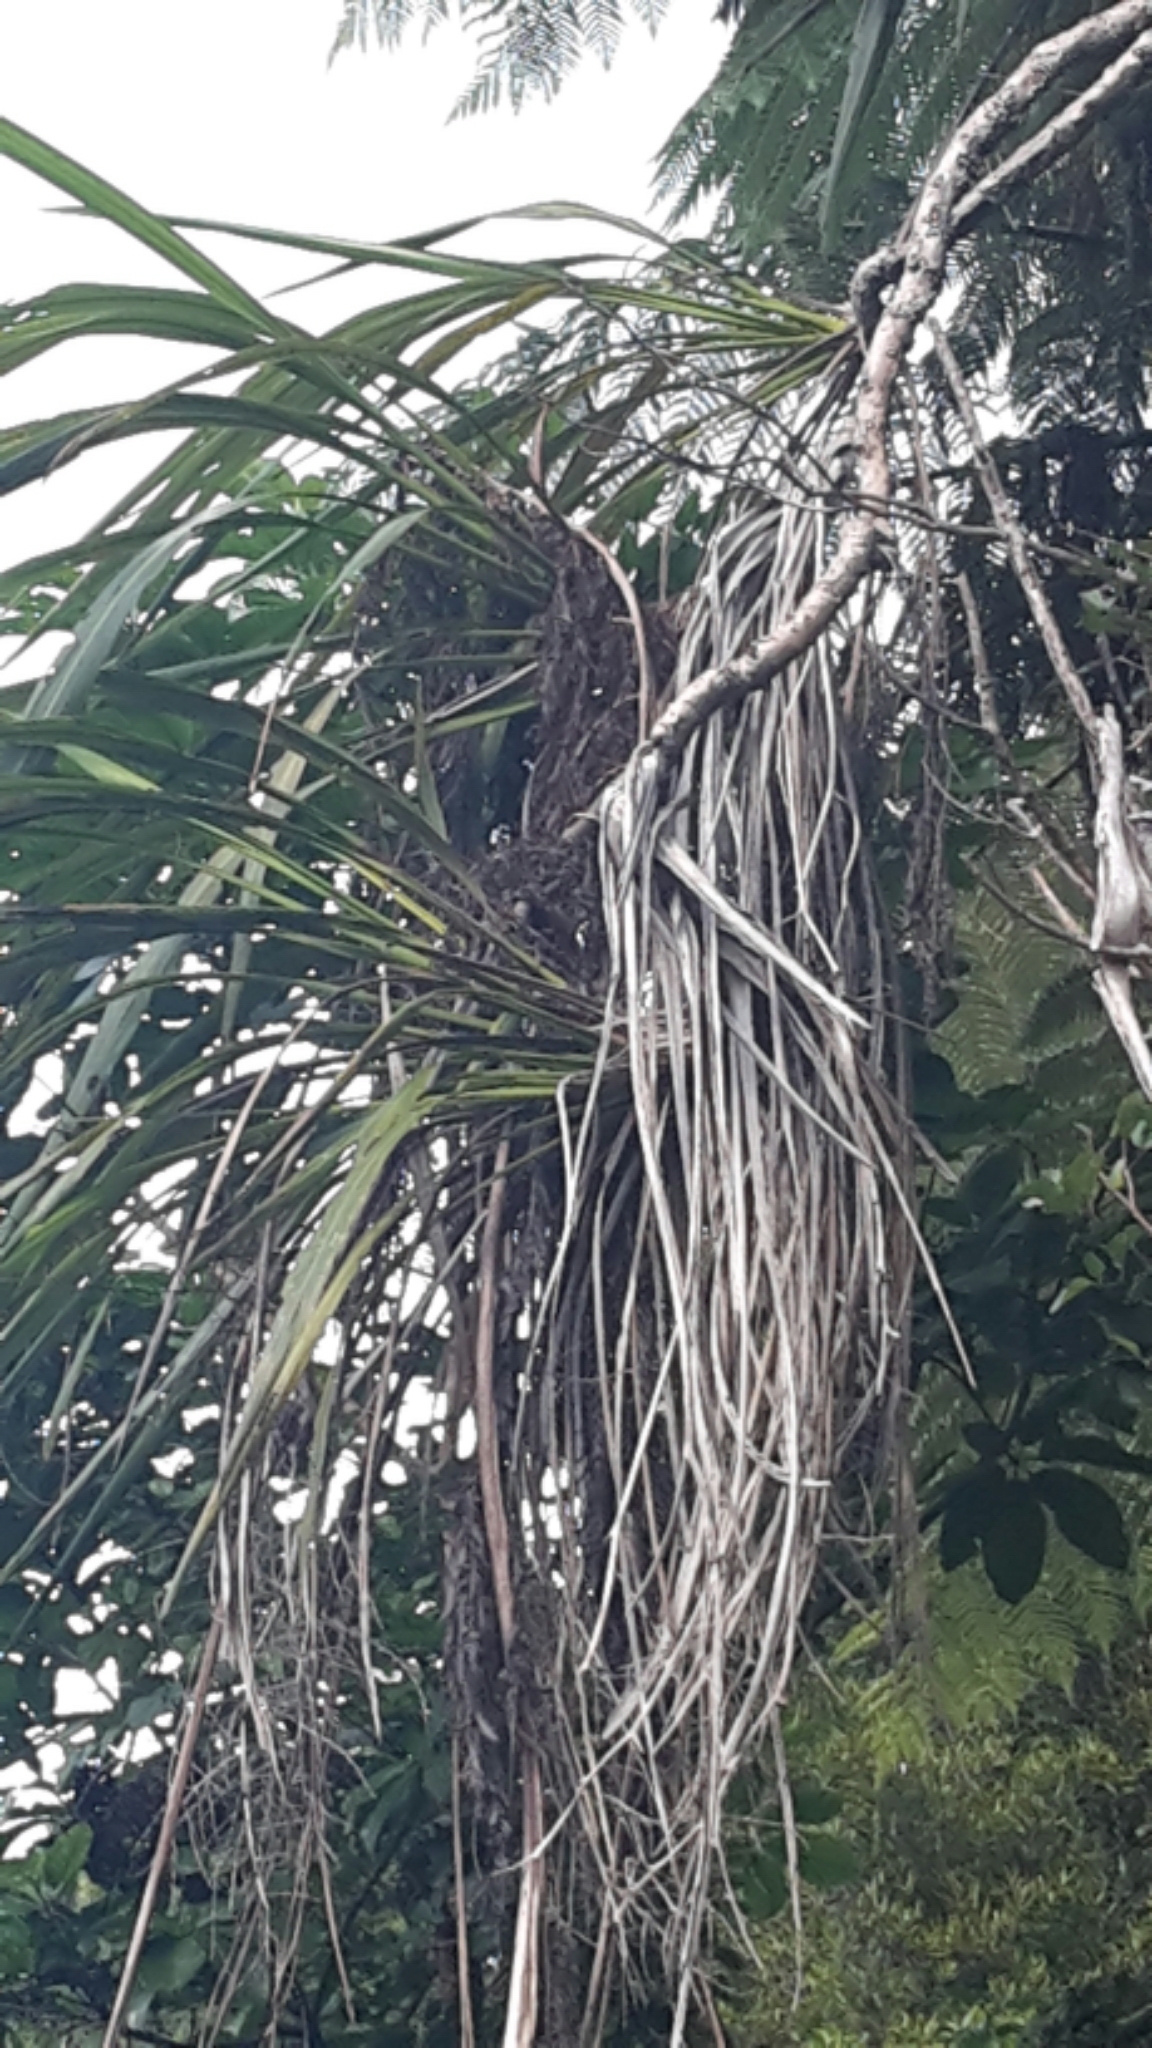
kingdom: Plantae
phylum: Tracheophyta
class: Liliopsida
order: Pandanales
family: Pandanaceae
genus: Freycinetia
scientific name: Freycinetia banksii
